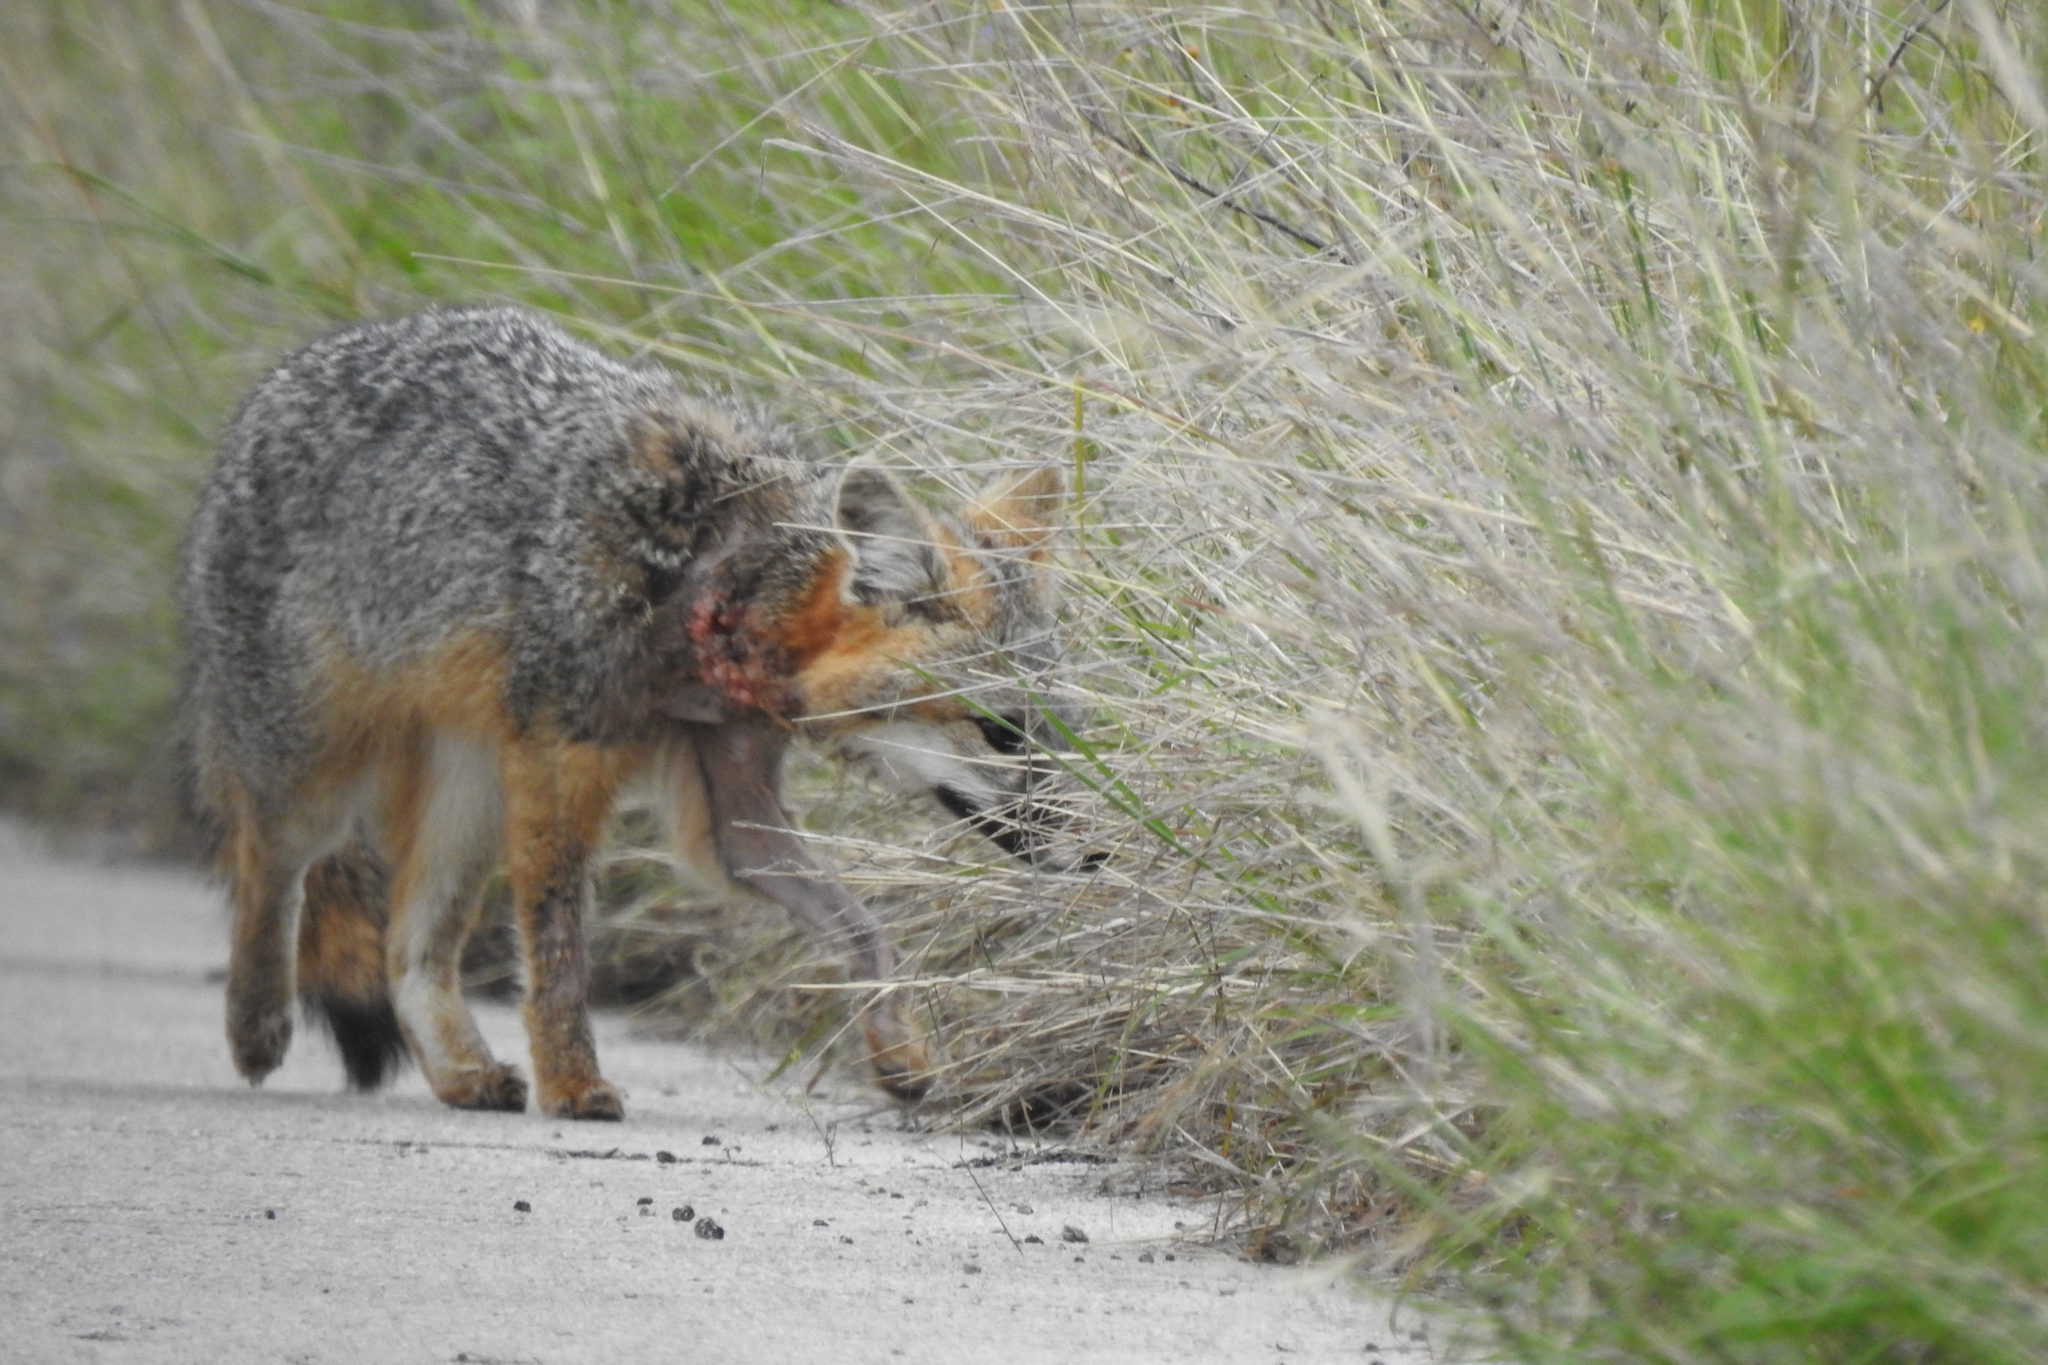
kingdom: Animalia
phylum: Chordata
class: Mammalia
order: Carnivora
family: Canidae
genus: Urocyon
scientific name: Urocyon cinereoargenteus
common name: Gray fox
